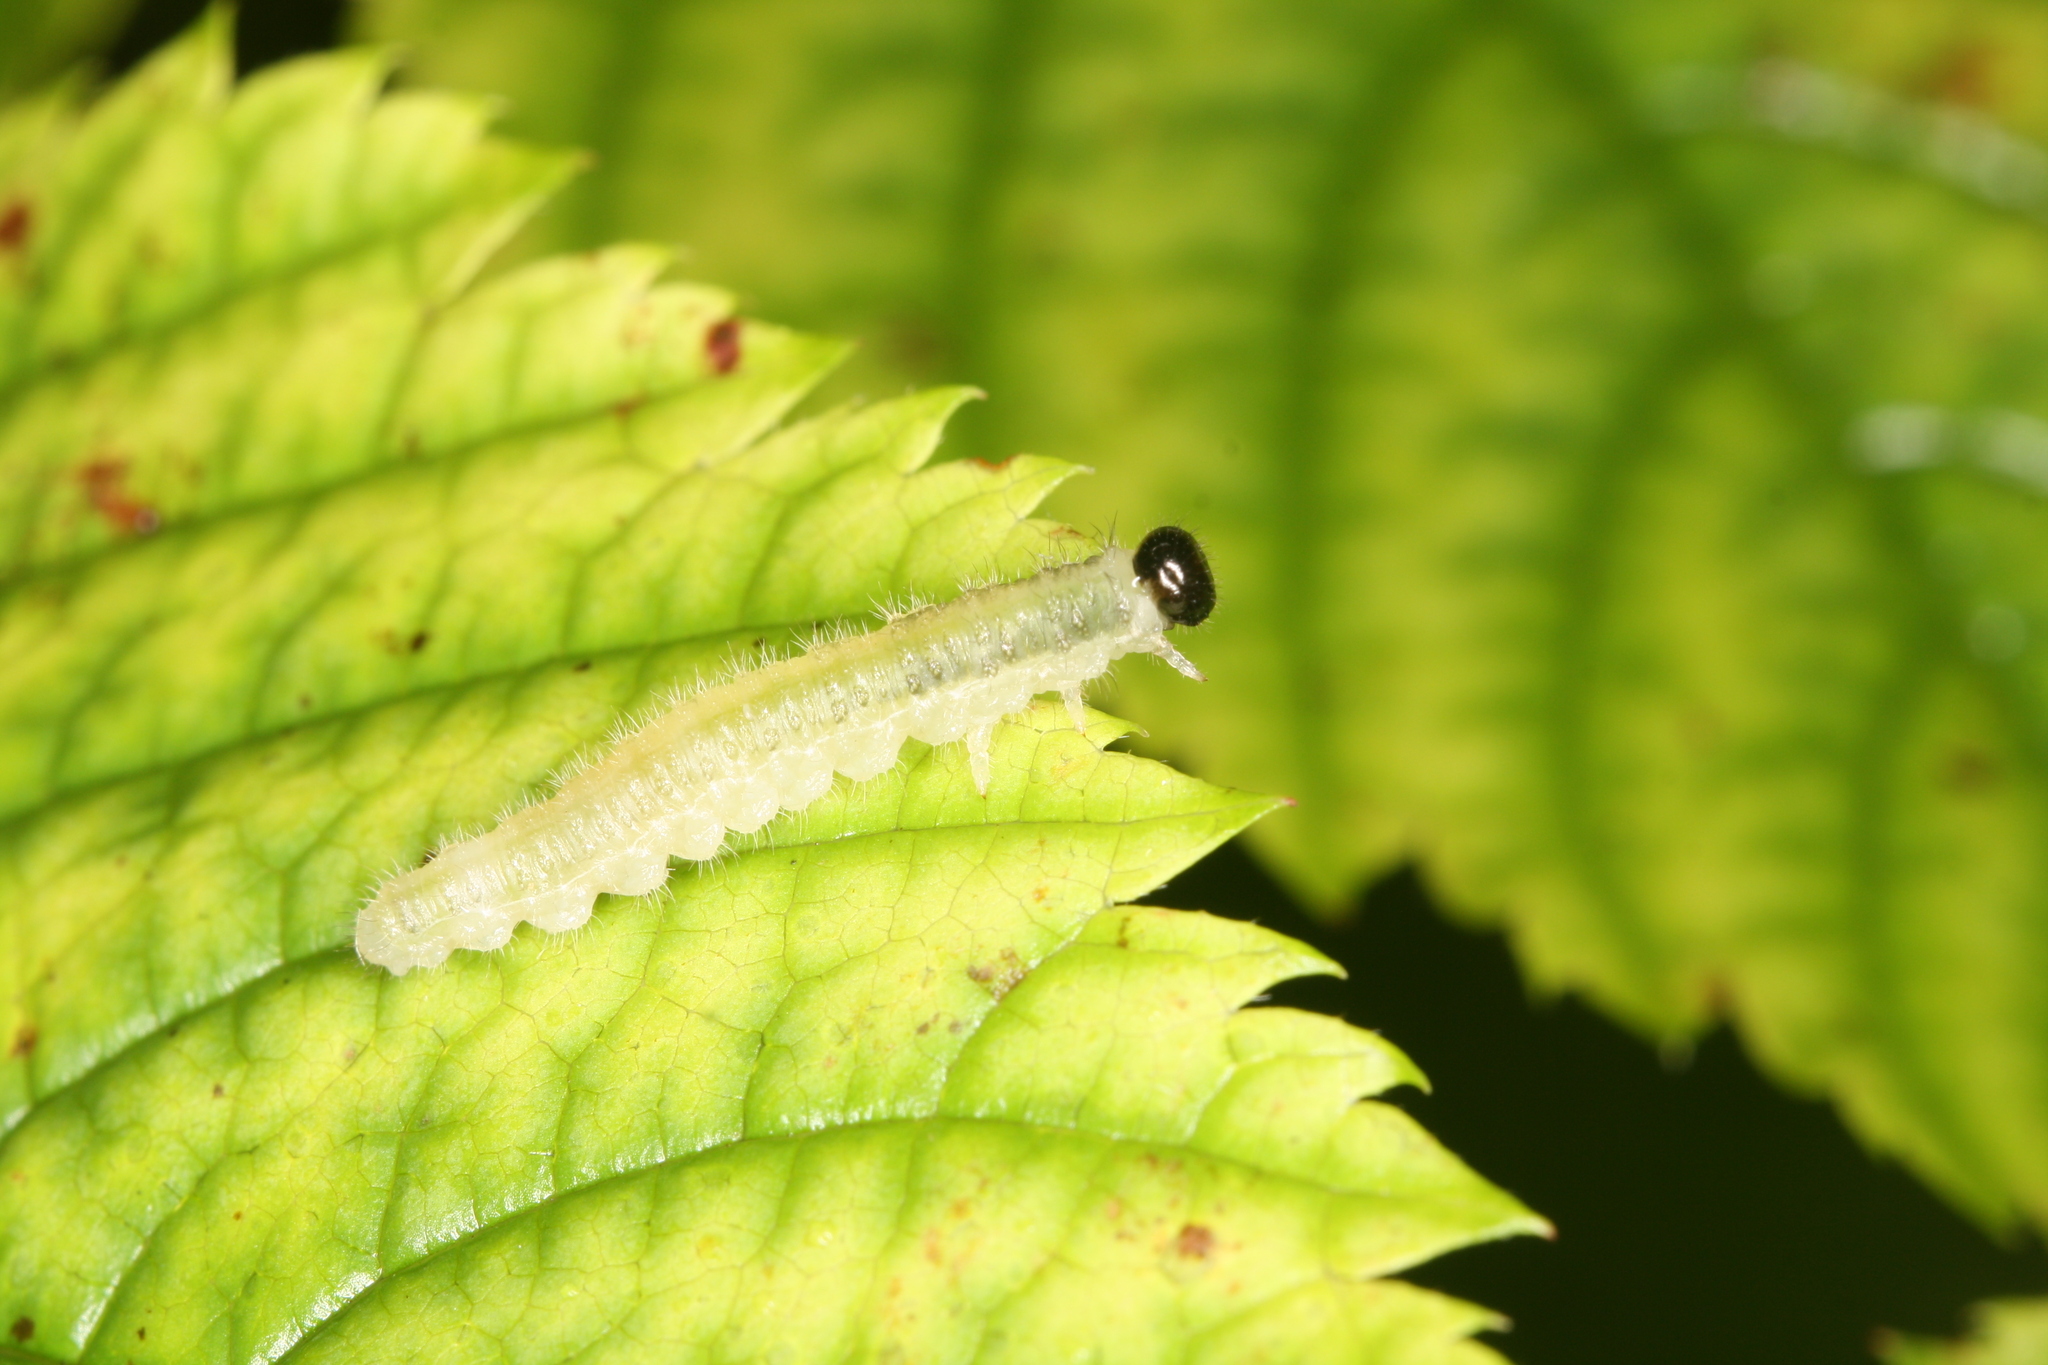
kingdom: Animalia
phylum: Arthropoda
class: Insecta
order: Hymenoptera
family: Tenthredinidae
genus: Cladius
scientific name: Cladius brullei
